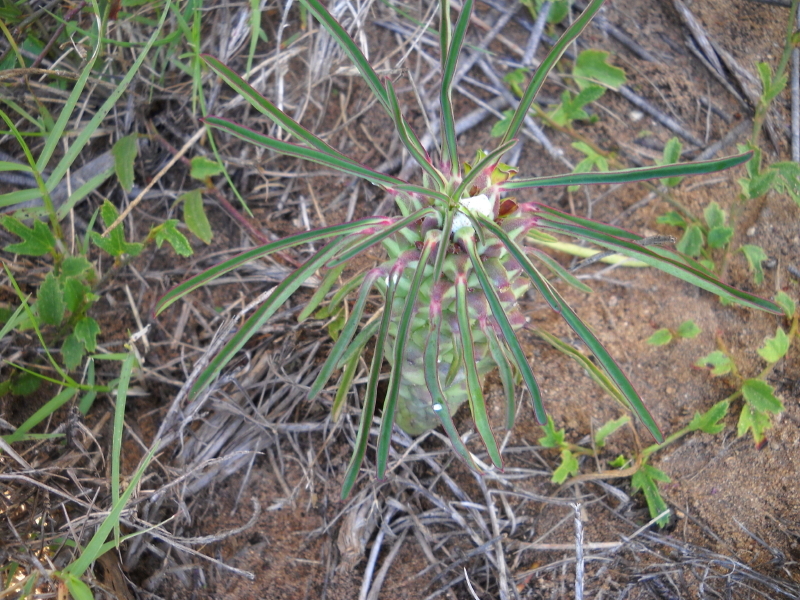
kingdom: Plantae
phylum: Tracheophyta
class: Magnoliopsida
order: Malpighiales
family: Euphorbiaceae
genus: Euphorbia
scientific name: Euphorbia clandestina
